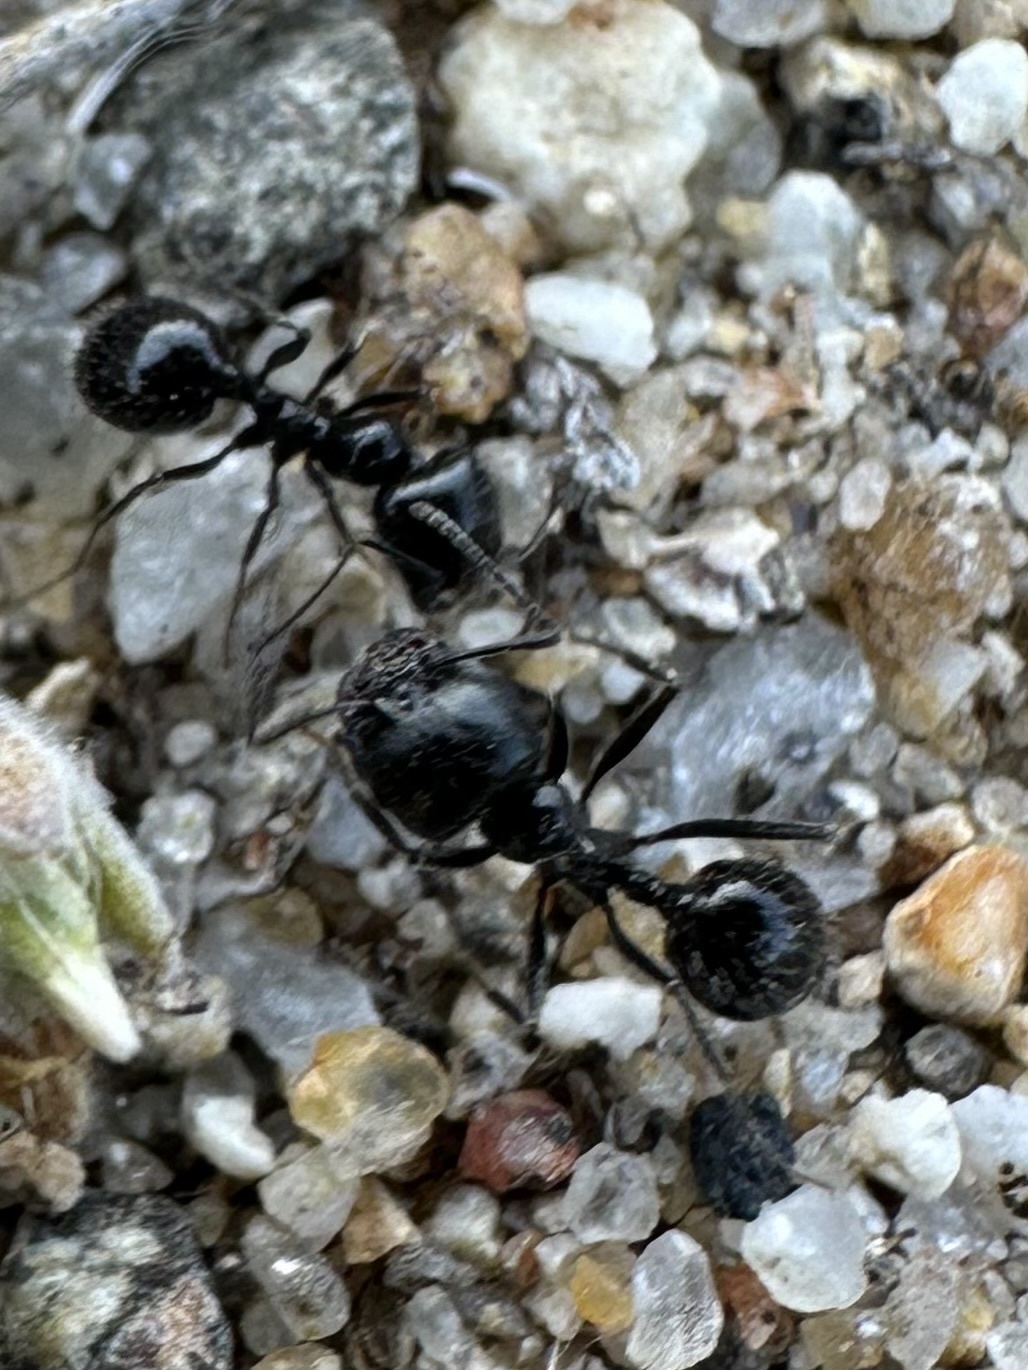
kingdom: Animalia
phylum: Arthropoda
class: Insecta
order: Hymenoptera
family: Formicidae
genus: Messor
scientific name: Messor pergandei
